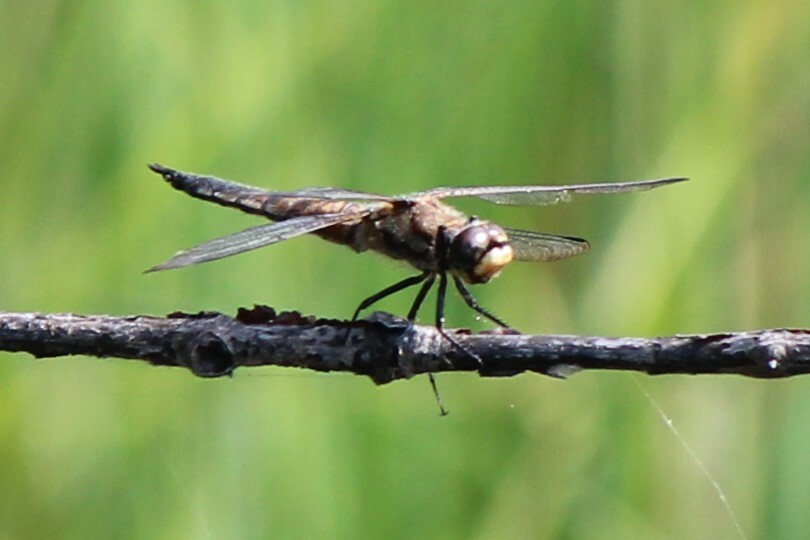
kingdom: Animalia
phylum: Arthropoda
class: Insecta
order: Odonata
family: Libellulidae
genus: Libellula
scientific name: Libellula quadrimaculata
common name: Four-spotted chaser
